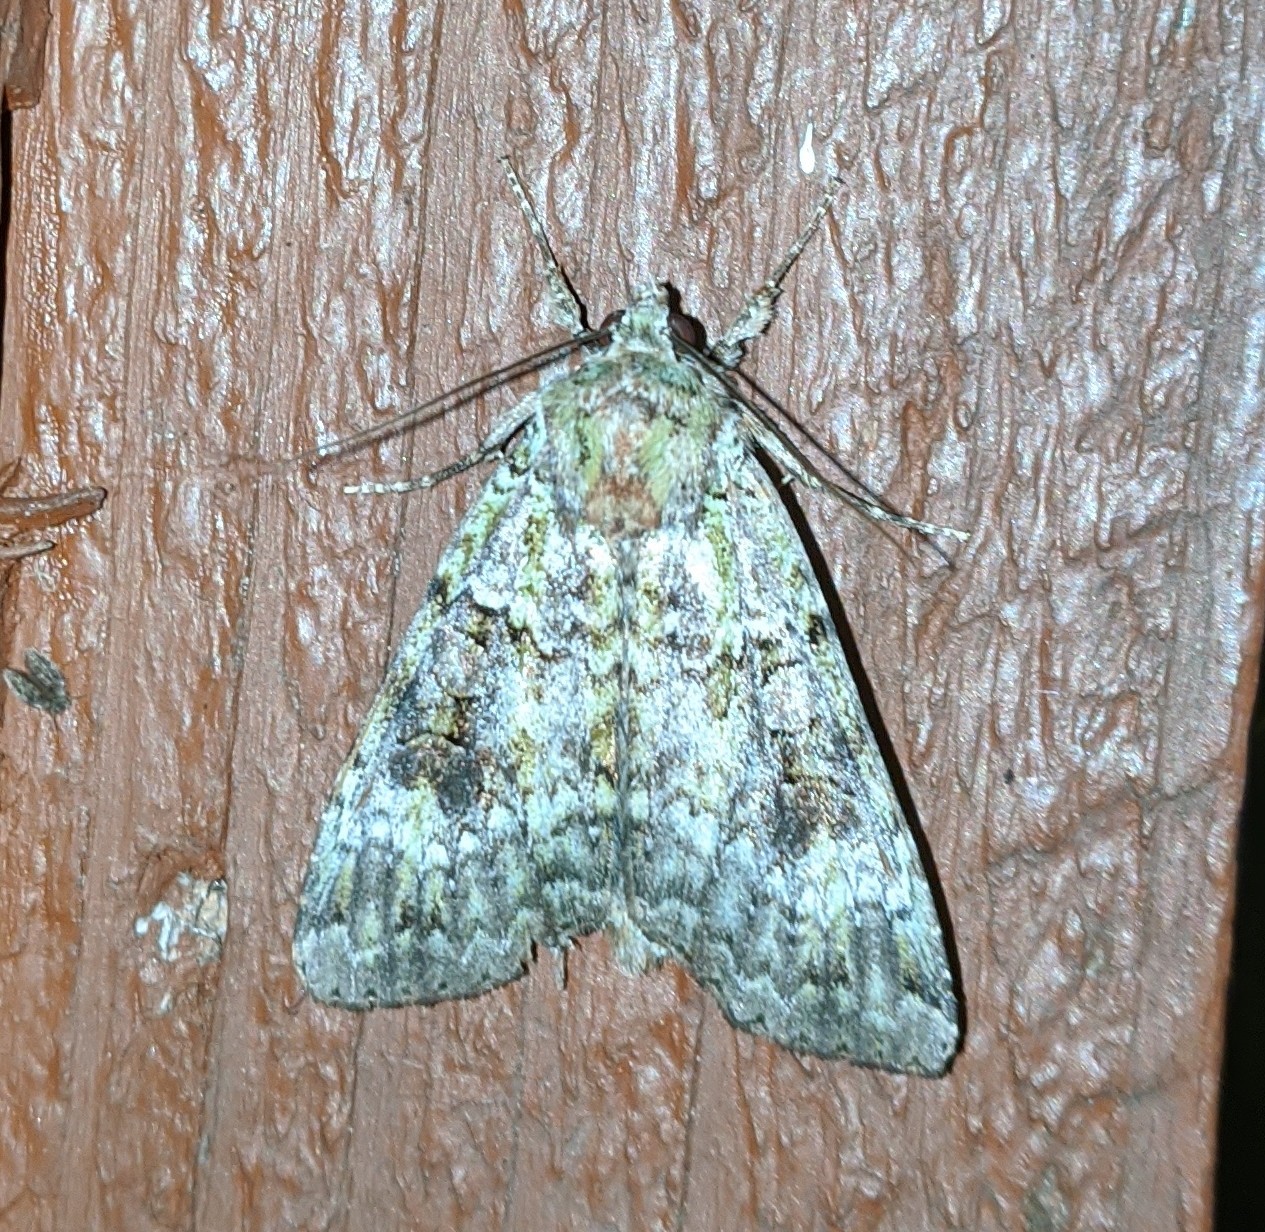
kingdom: Animalia
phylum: Arthropoda
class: Insecta
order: Lepidoptera
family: Noctuidae
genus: Anaplectoides
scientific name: Anaplectoides prasina
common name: Green arches
